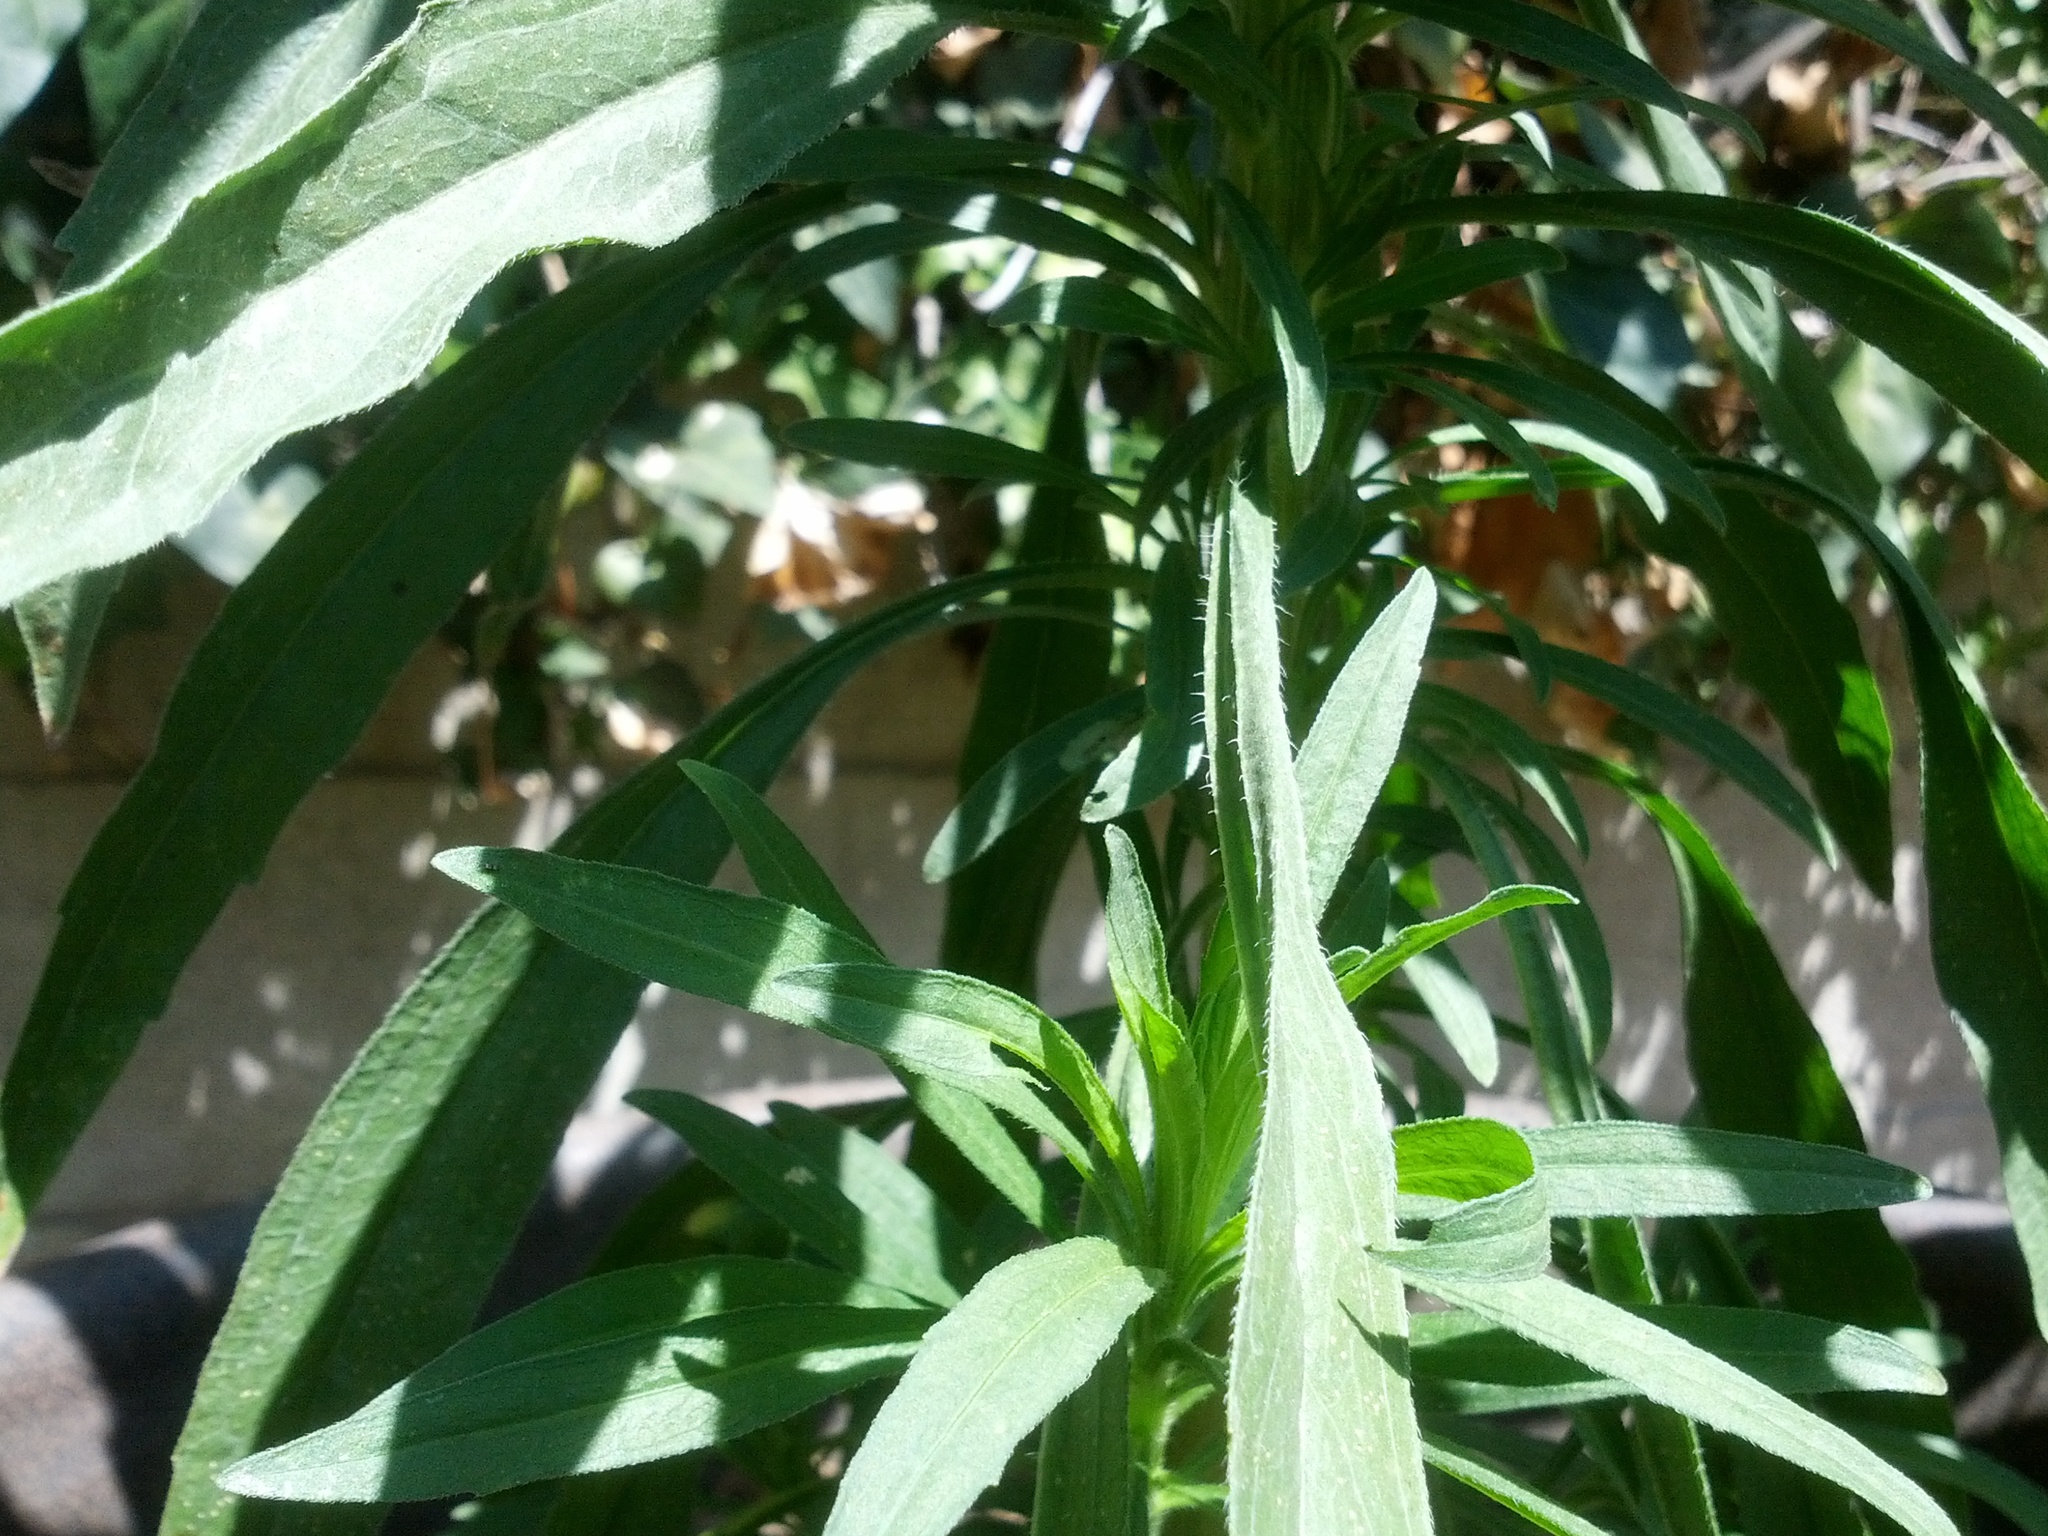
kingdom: Plantae
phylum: Tracheophyta
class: Magnoliopsida
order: Asterales
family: Asteraceae
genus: Erigeron
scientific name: Erigeron canadensis
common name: Canadian fleabane
